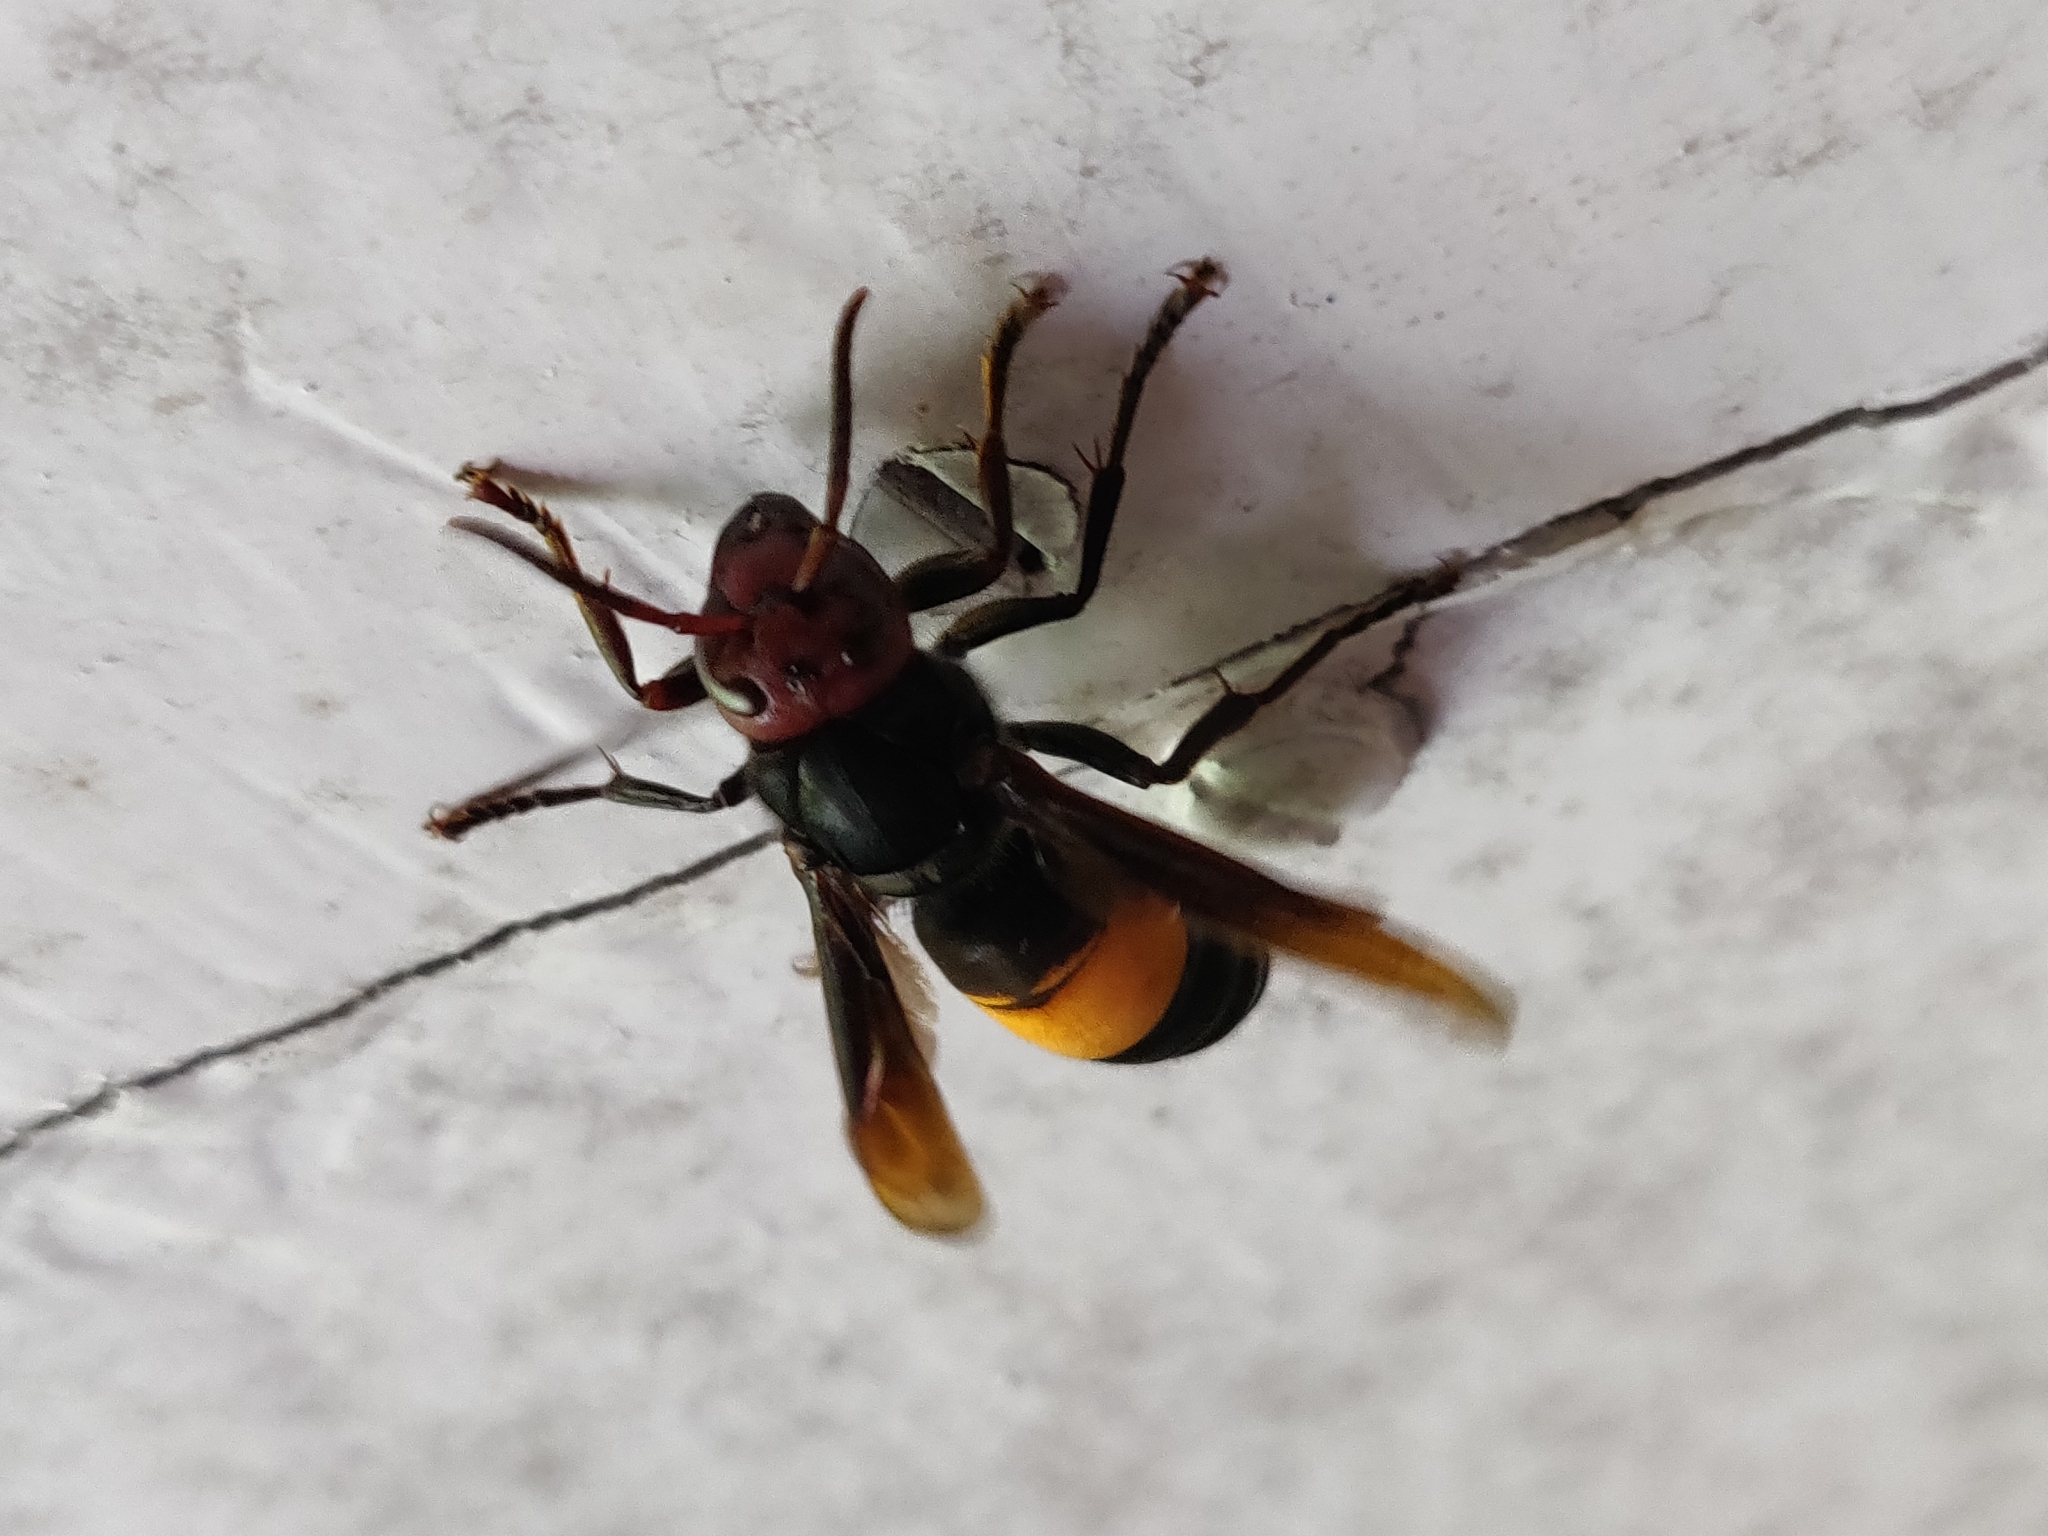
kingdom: Animalia
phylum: Arthropoda
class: Insecta
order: Hymenoptera
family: Vespidae
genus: Vespa
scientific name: Vespa tropica
